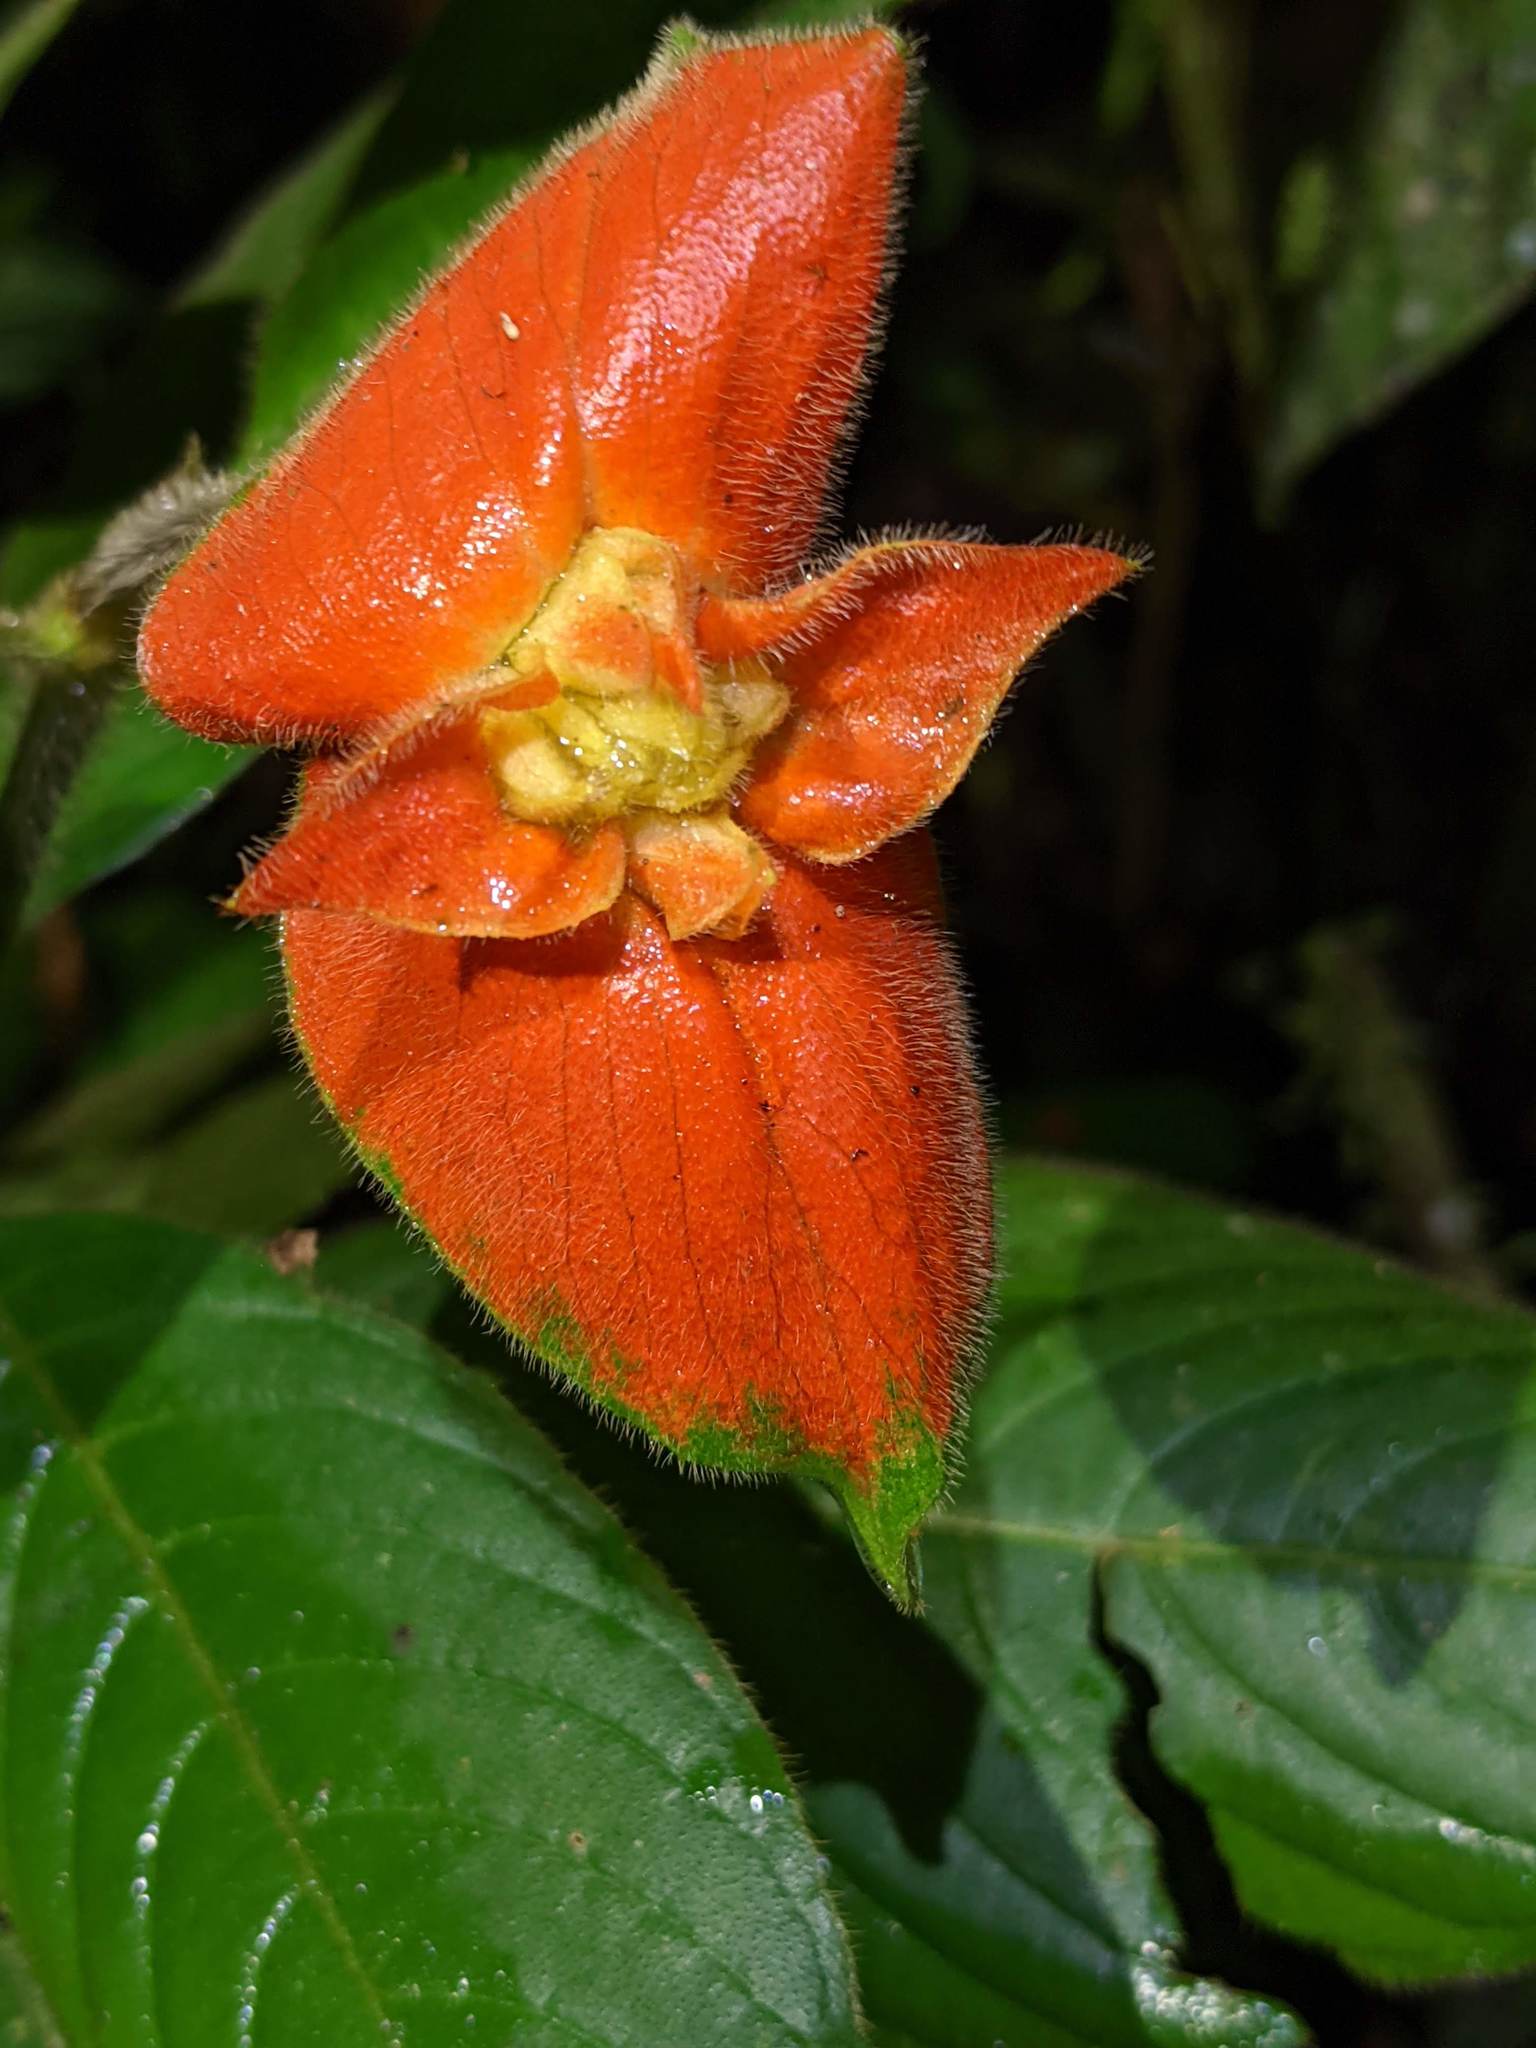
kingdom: Plantae
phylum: Tracheophyta
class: Magnoliopsida
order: Gentianales
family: Rubiaceae
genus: Palicourea
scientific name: Palicourea tomentosa
